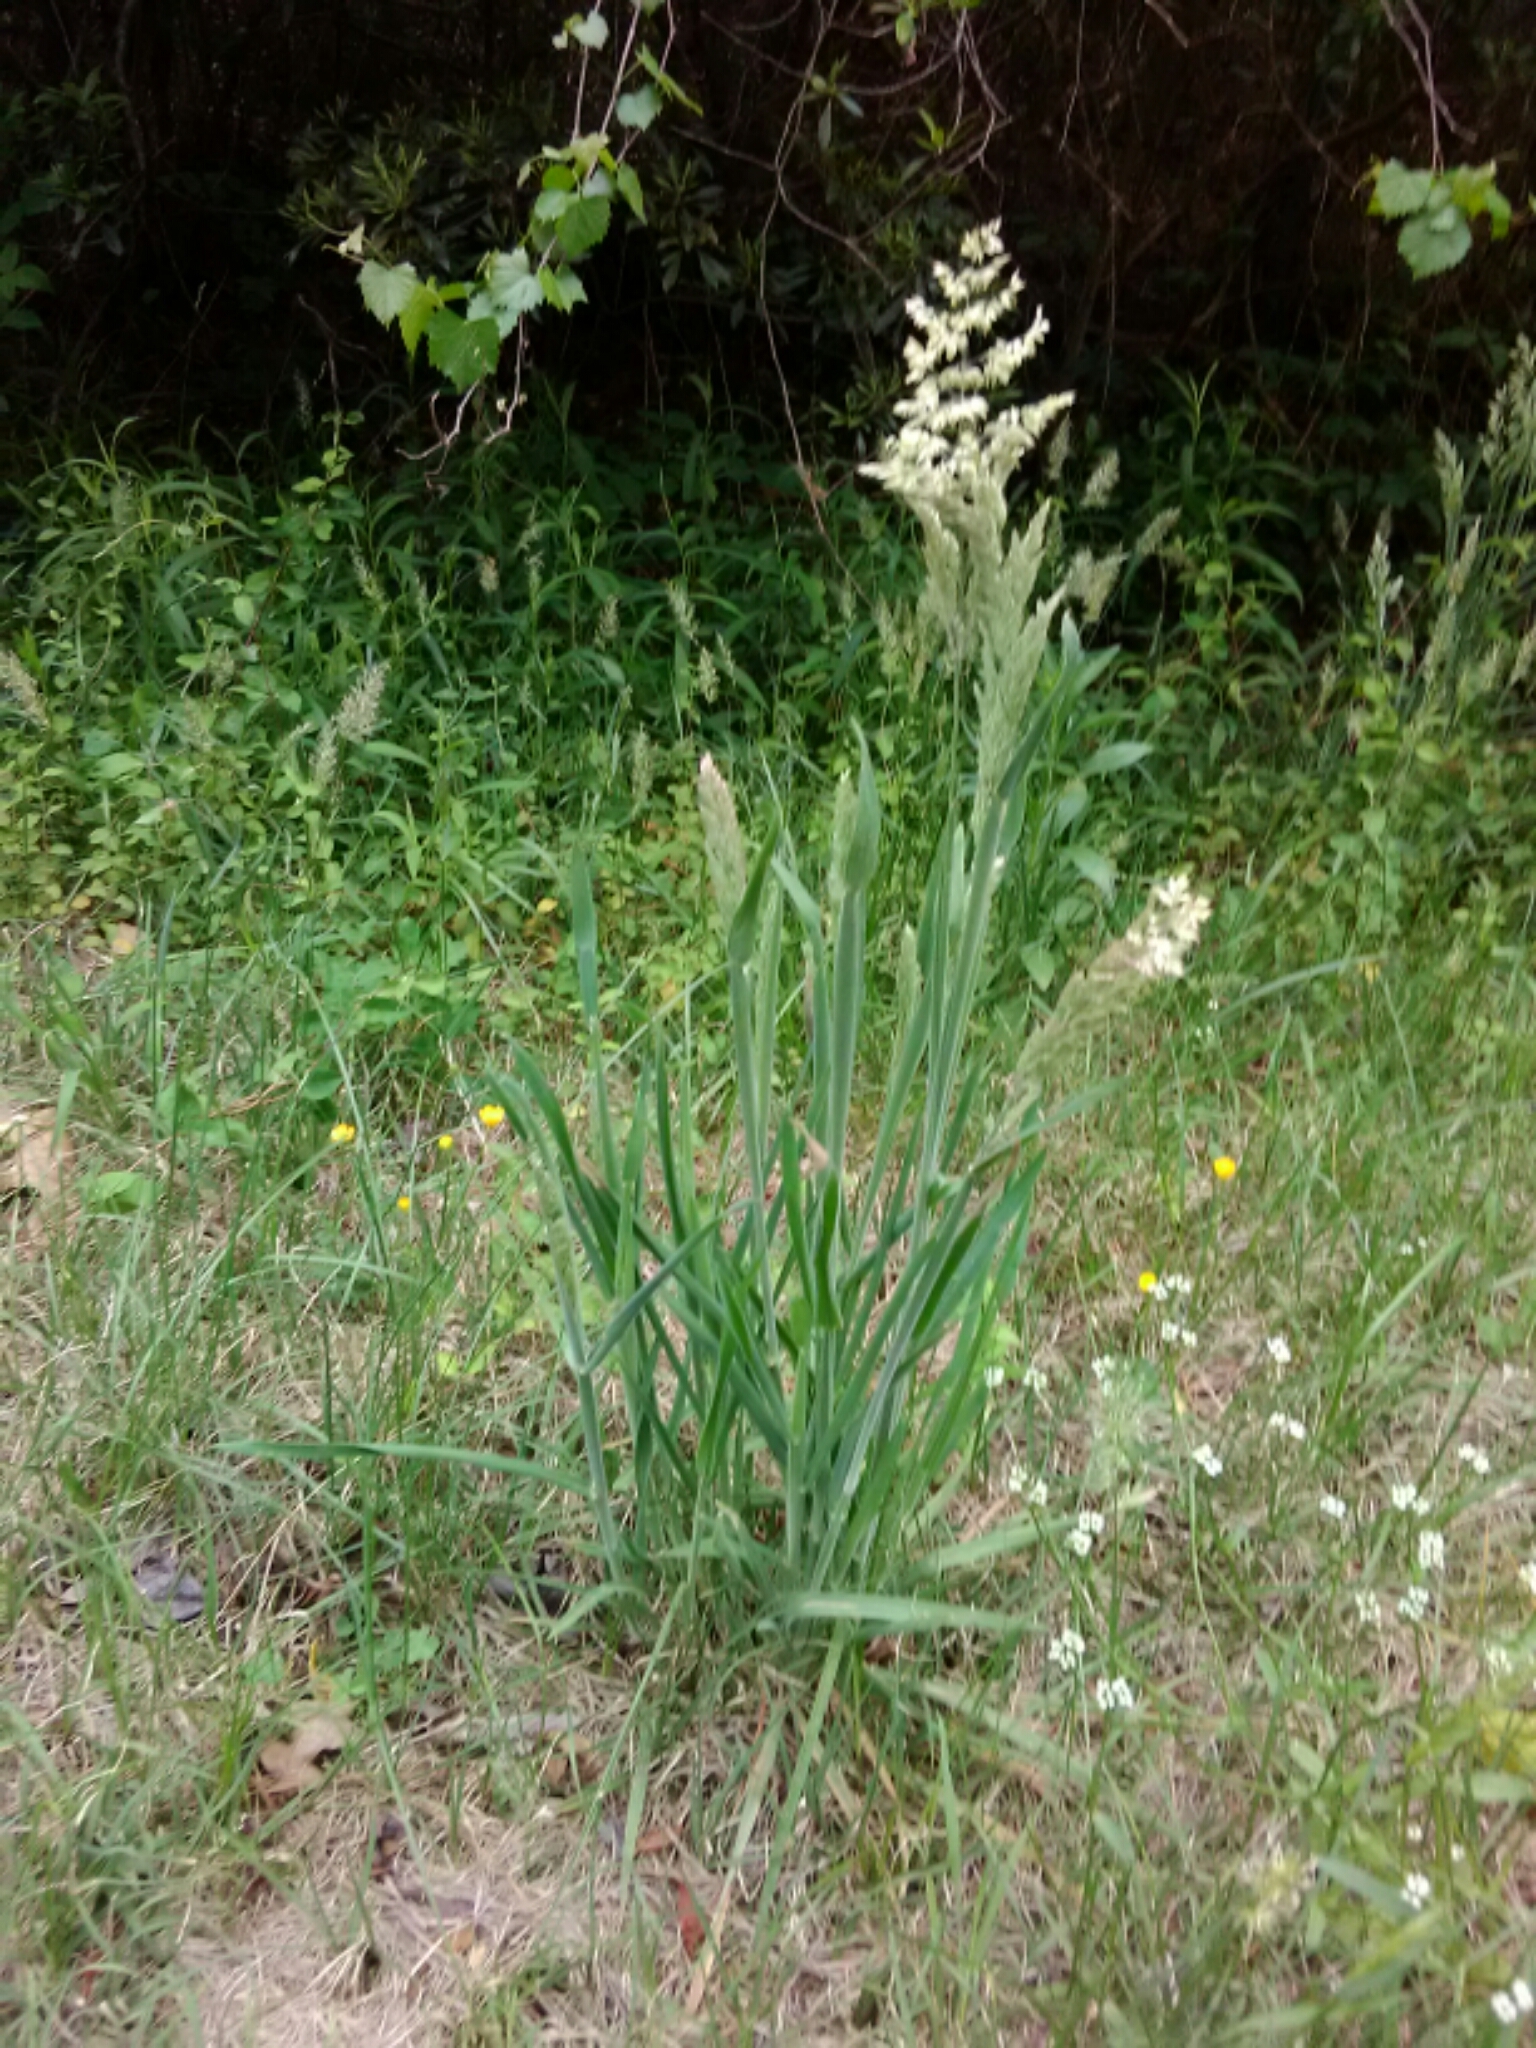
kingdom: Plantae
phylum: Tracheophyta
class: Liliopsida
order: Poales
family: Poaceae
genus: Holcus
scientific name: Holcus lanatus
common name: Yorkshire-fog
